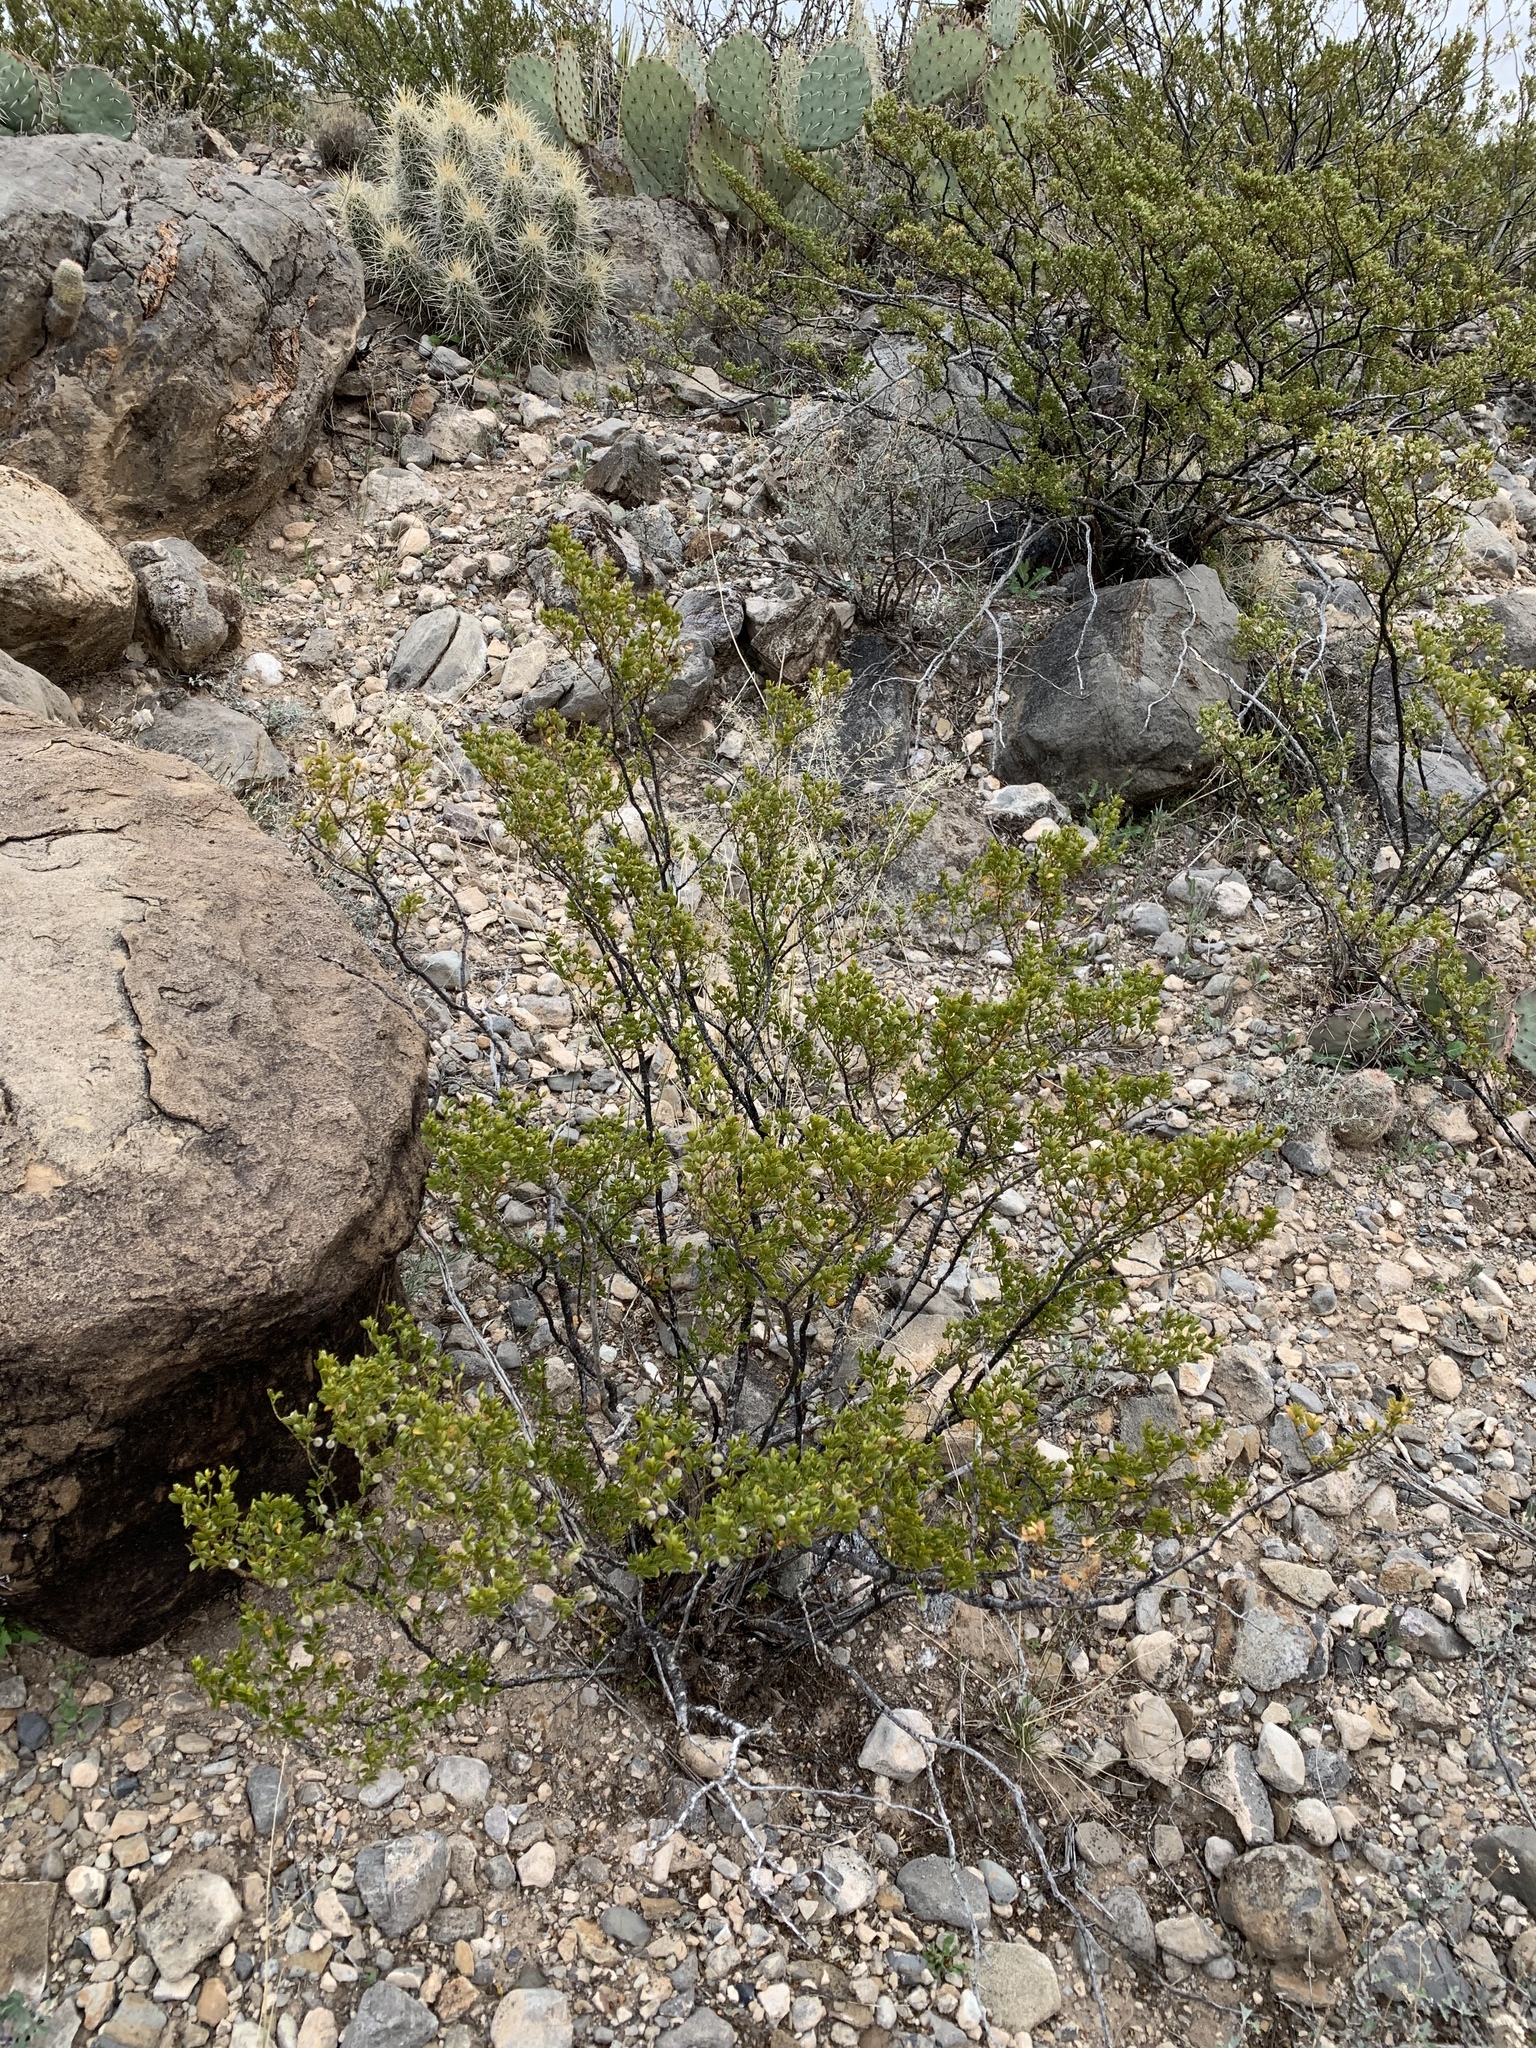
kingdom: Plantae
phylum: Tracheophyta
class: Magnoliopsida
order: Zygophyllales
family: Zygophyllaceae
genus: Larrea
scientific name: Larrea tridentata
